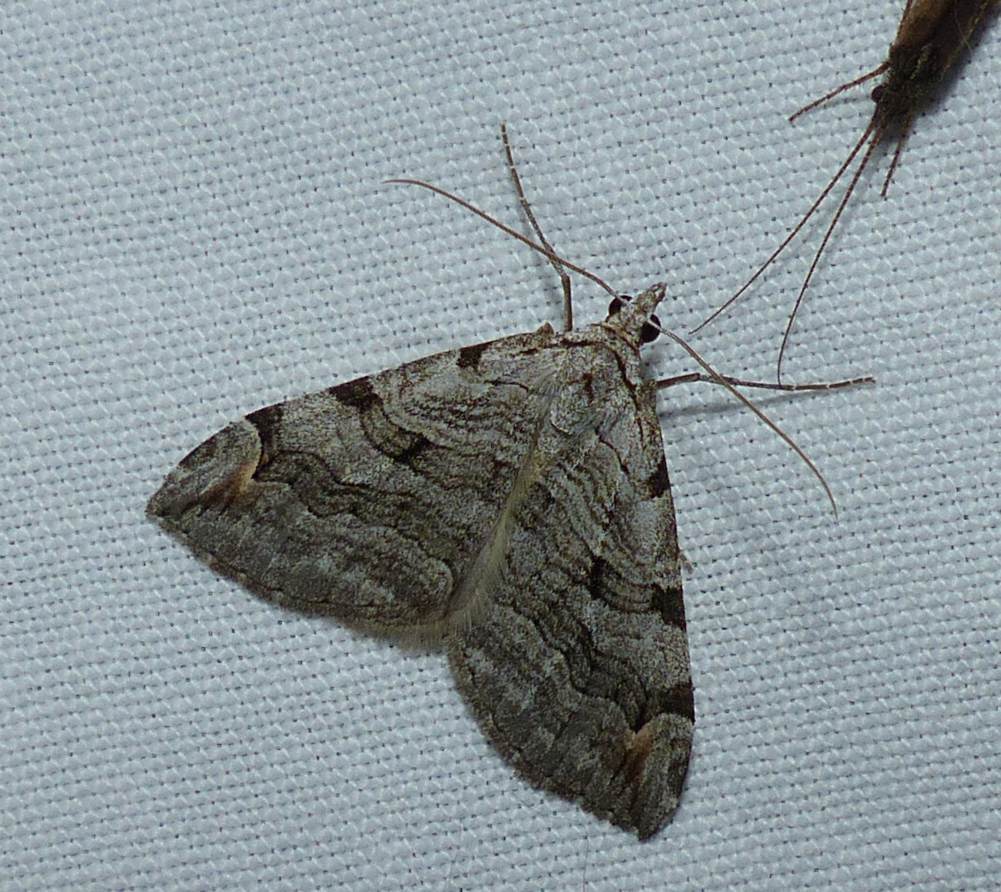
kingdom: Animalia
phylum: Arthropoda
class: Insecta
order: Lepidoptera
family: Geometridae
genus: Aplocera
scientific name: Aplocera plagiata
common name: Treble-bar
